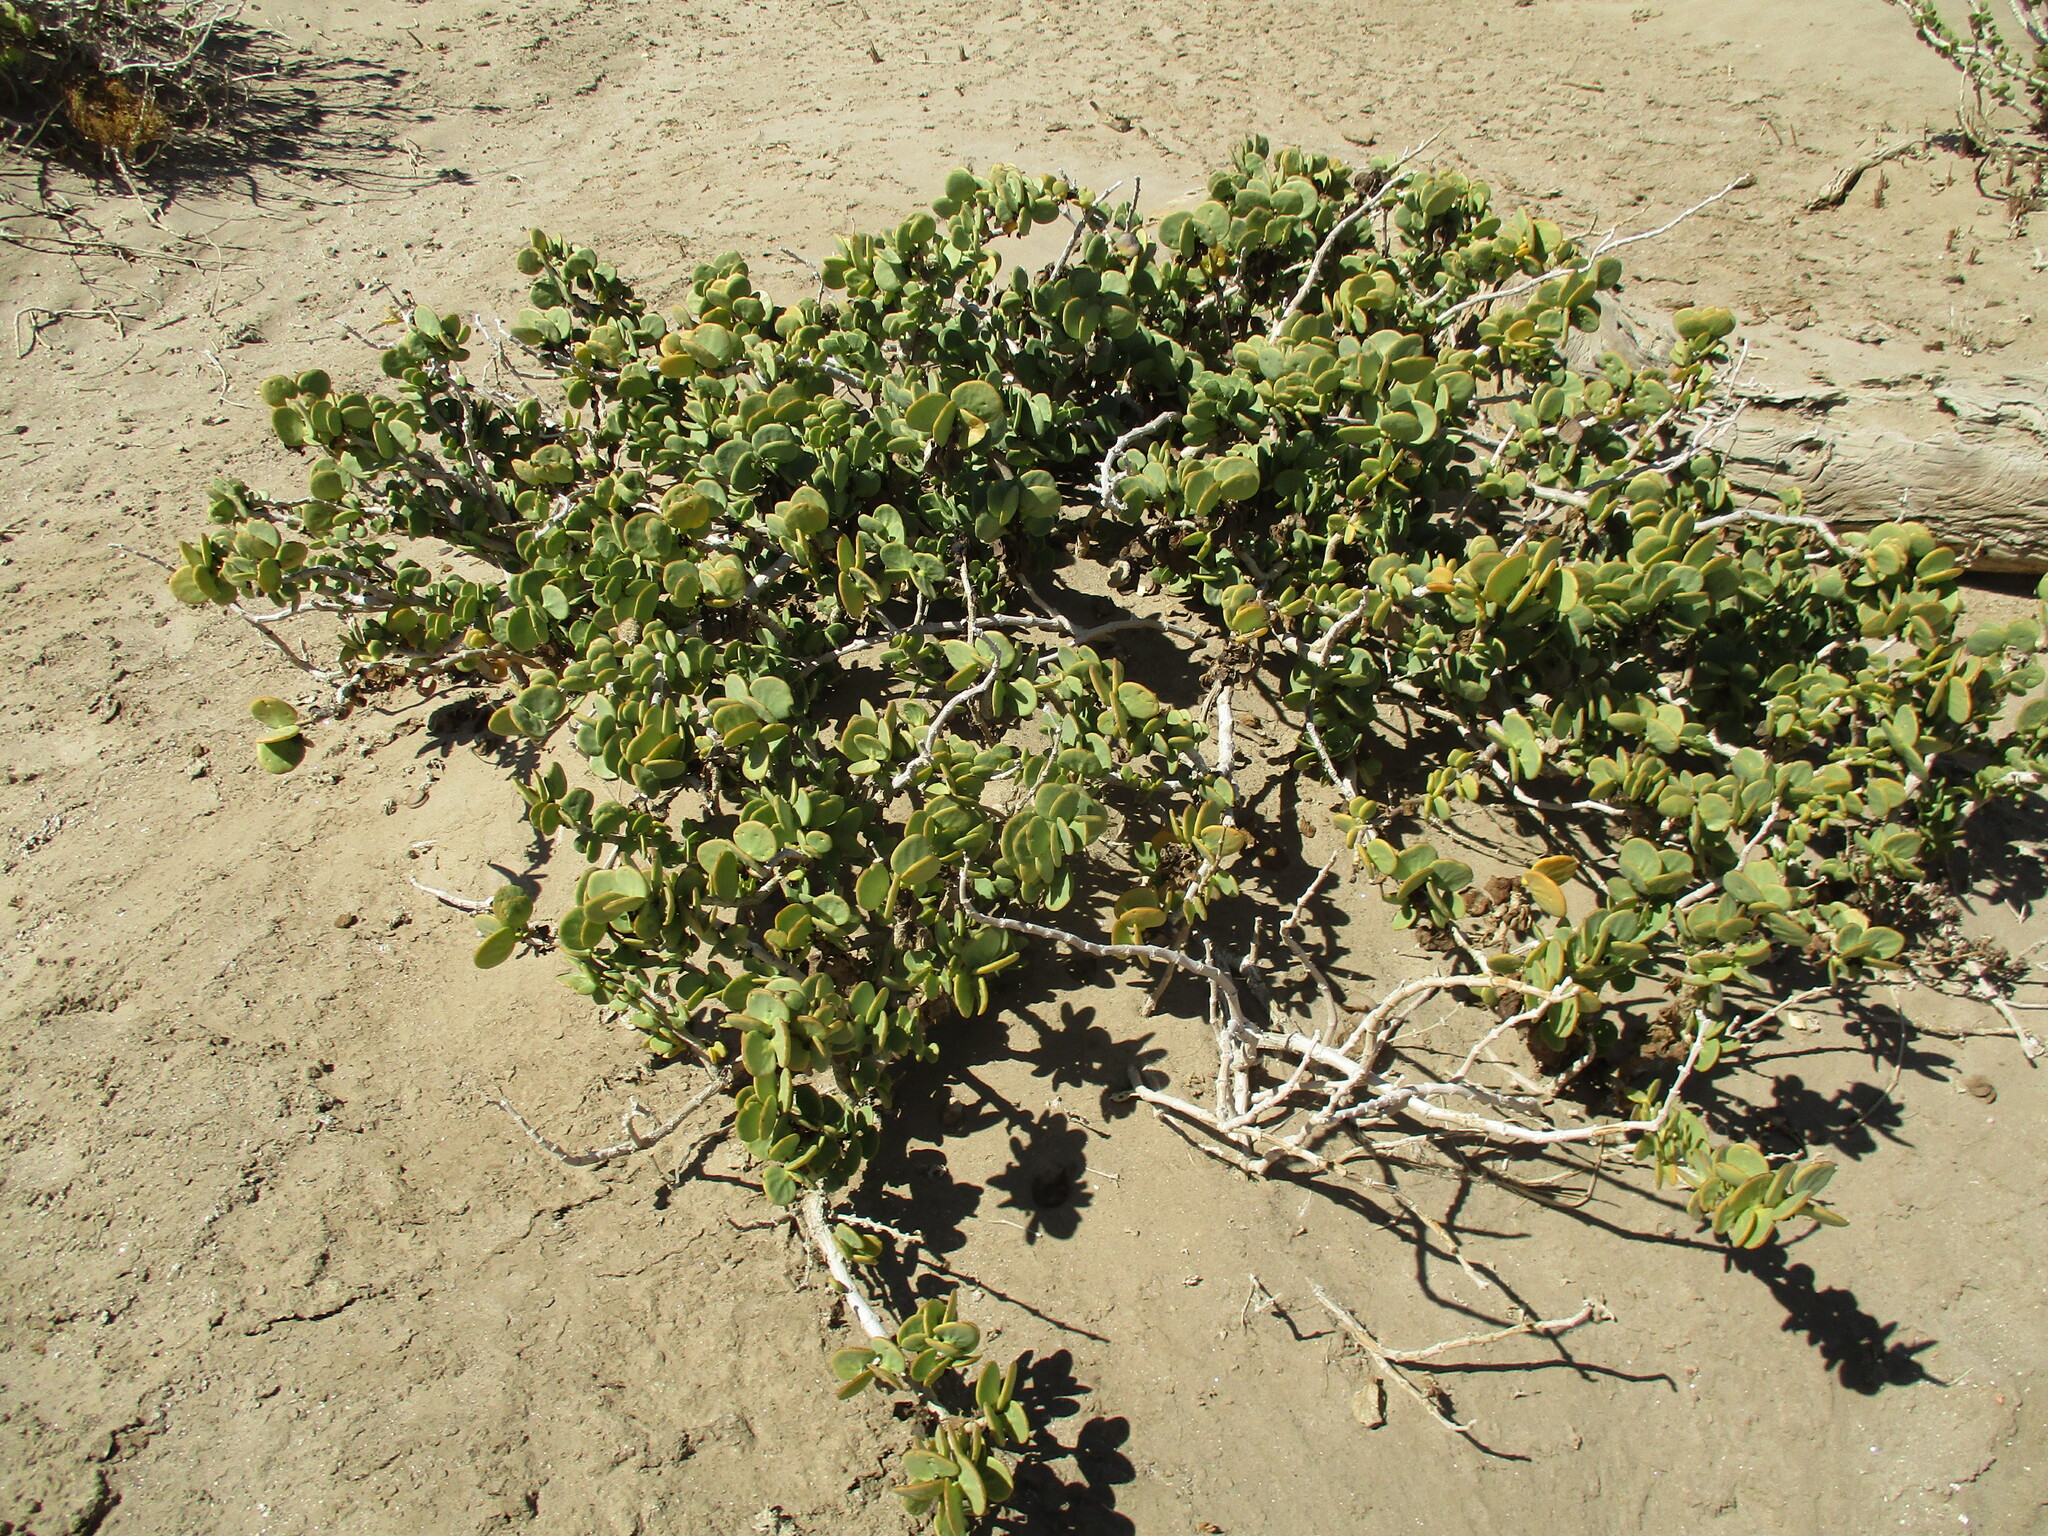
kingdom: Plantae
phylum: Tracheophyta
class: Magnoliopsida
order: Zygophyllales
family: Zygophyllaceae
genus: Tetraena
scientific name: Tetraena stapfii
